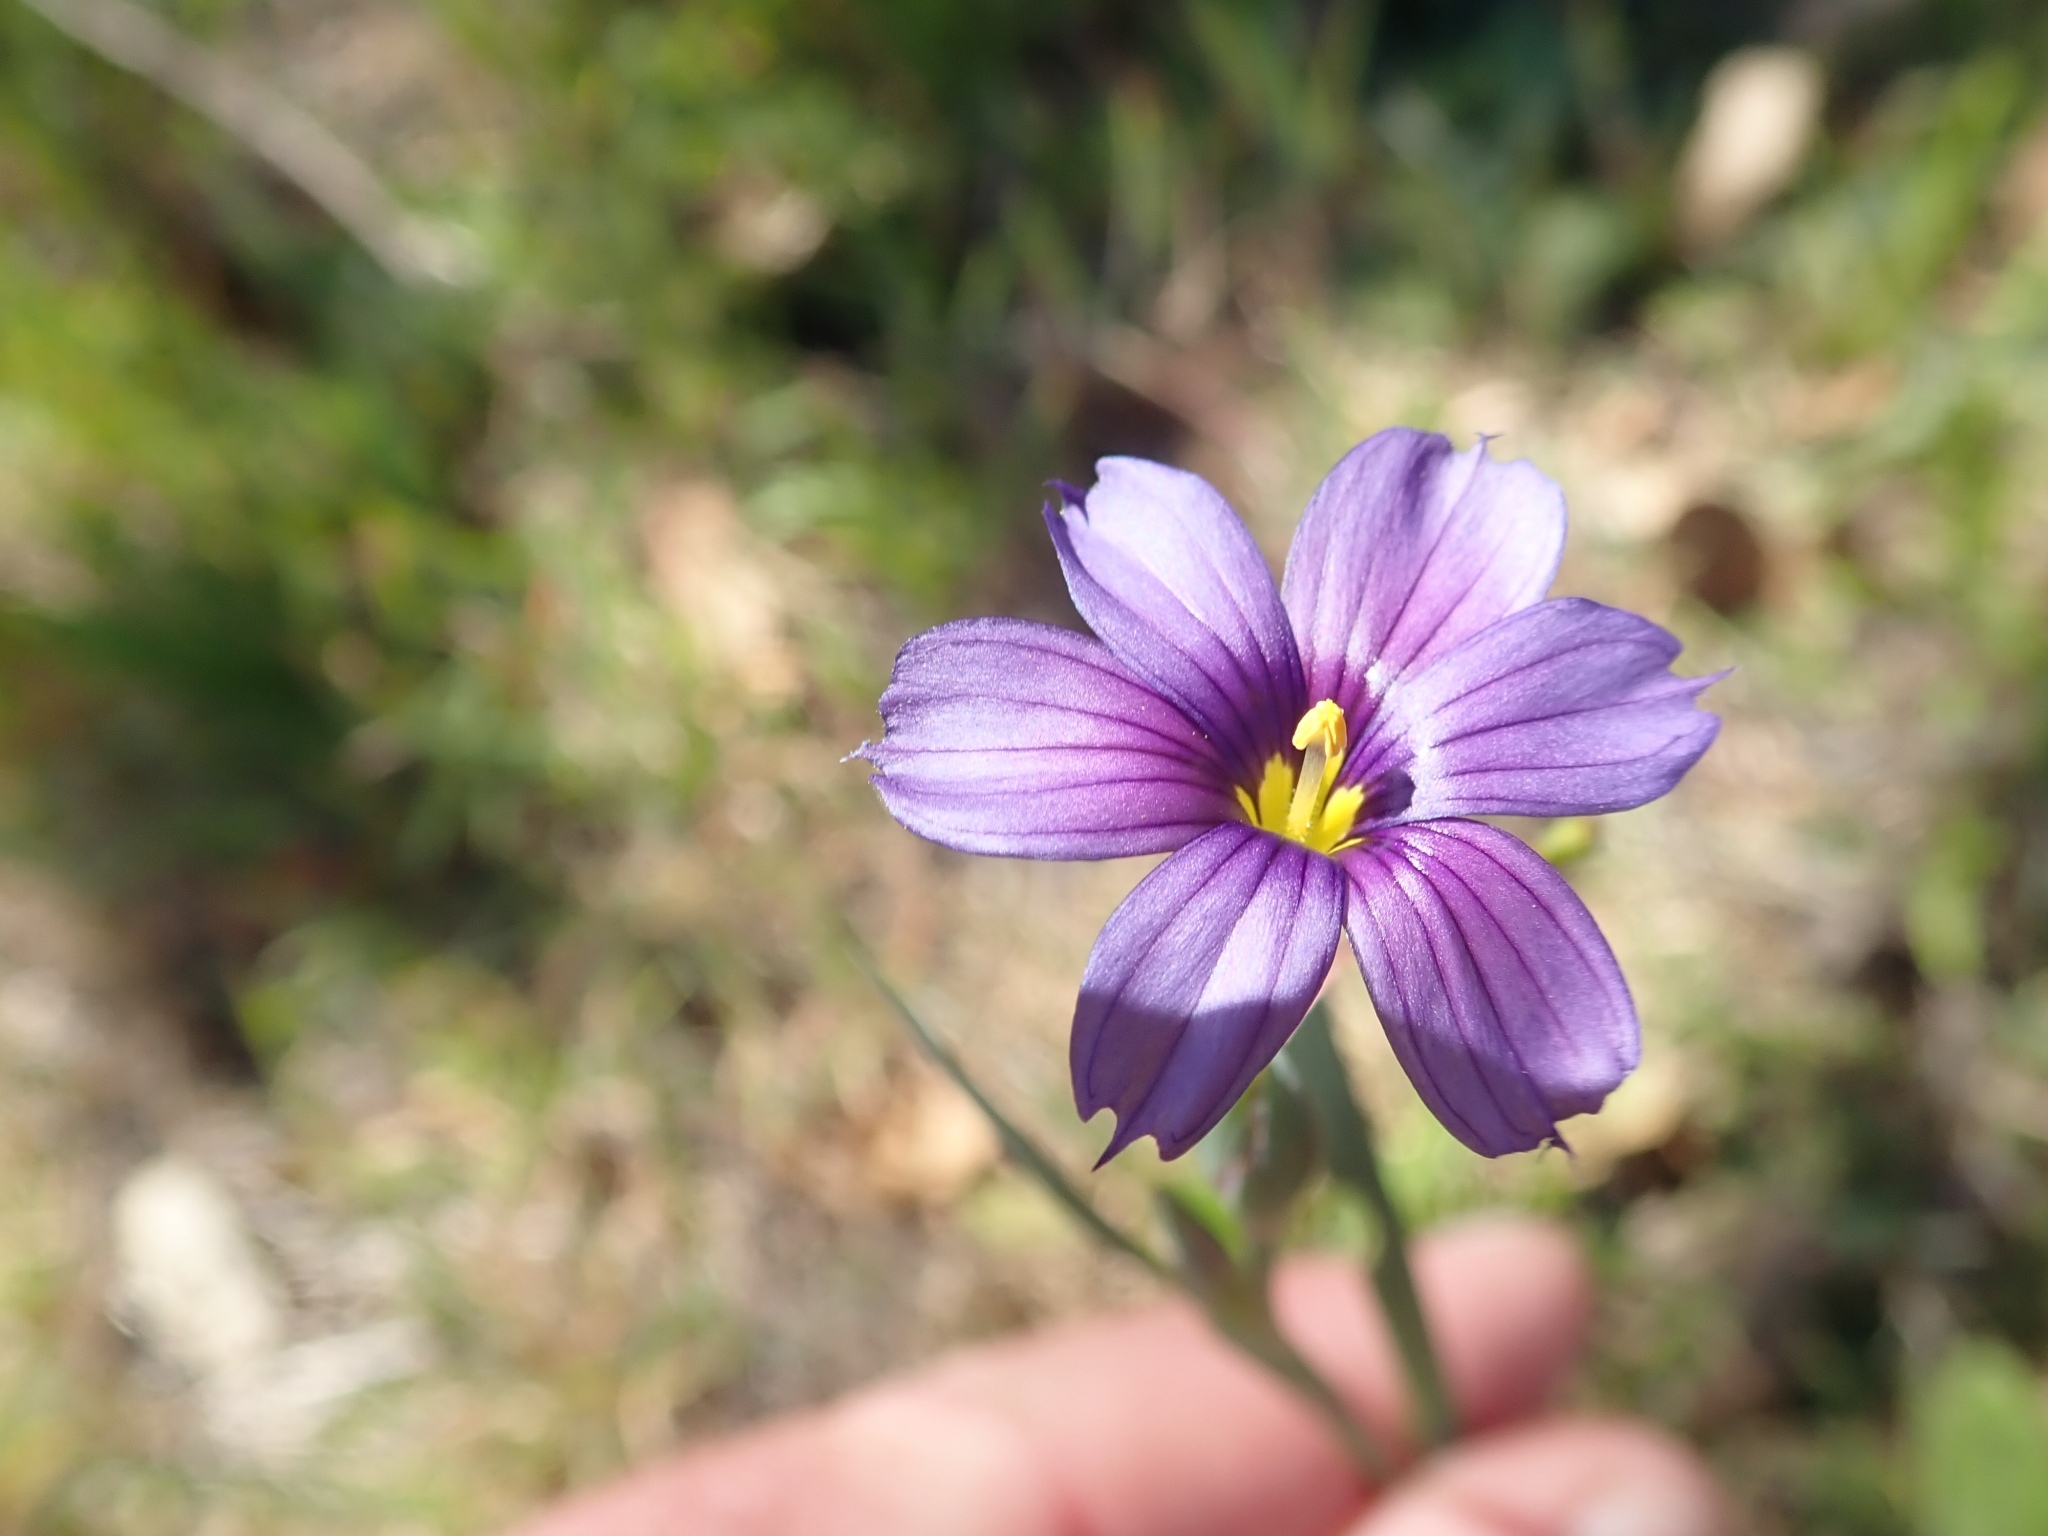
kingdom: Plantae
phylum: Tracheophyta
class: Liliopsida
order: Asparagales
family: Iridaceae
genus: Sisyrinchium
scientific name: Sisyrinchium bellum
